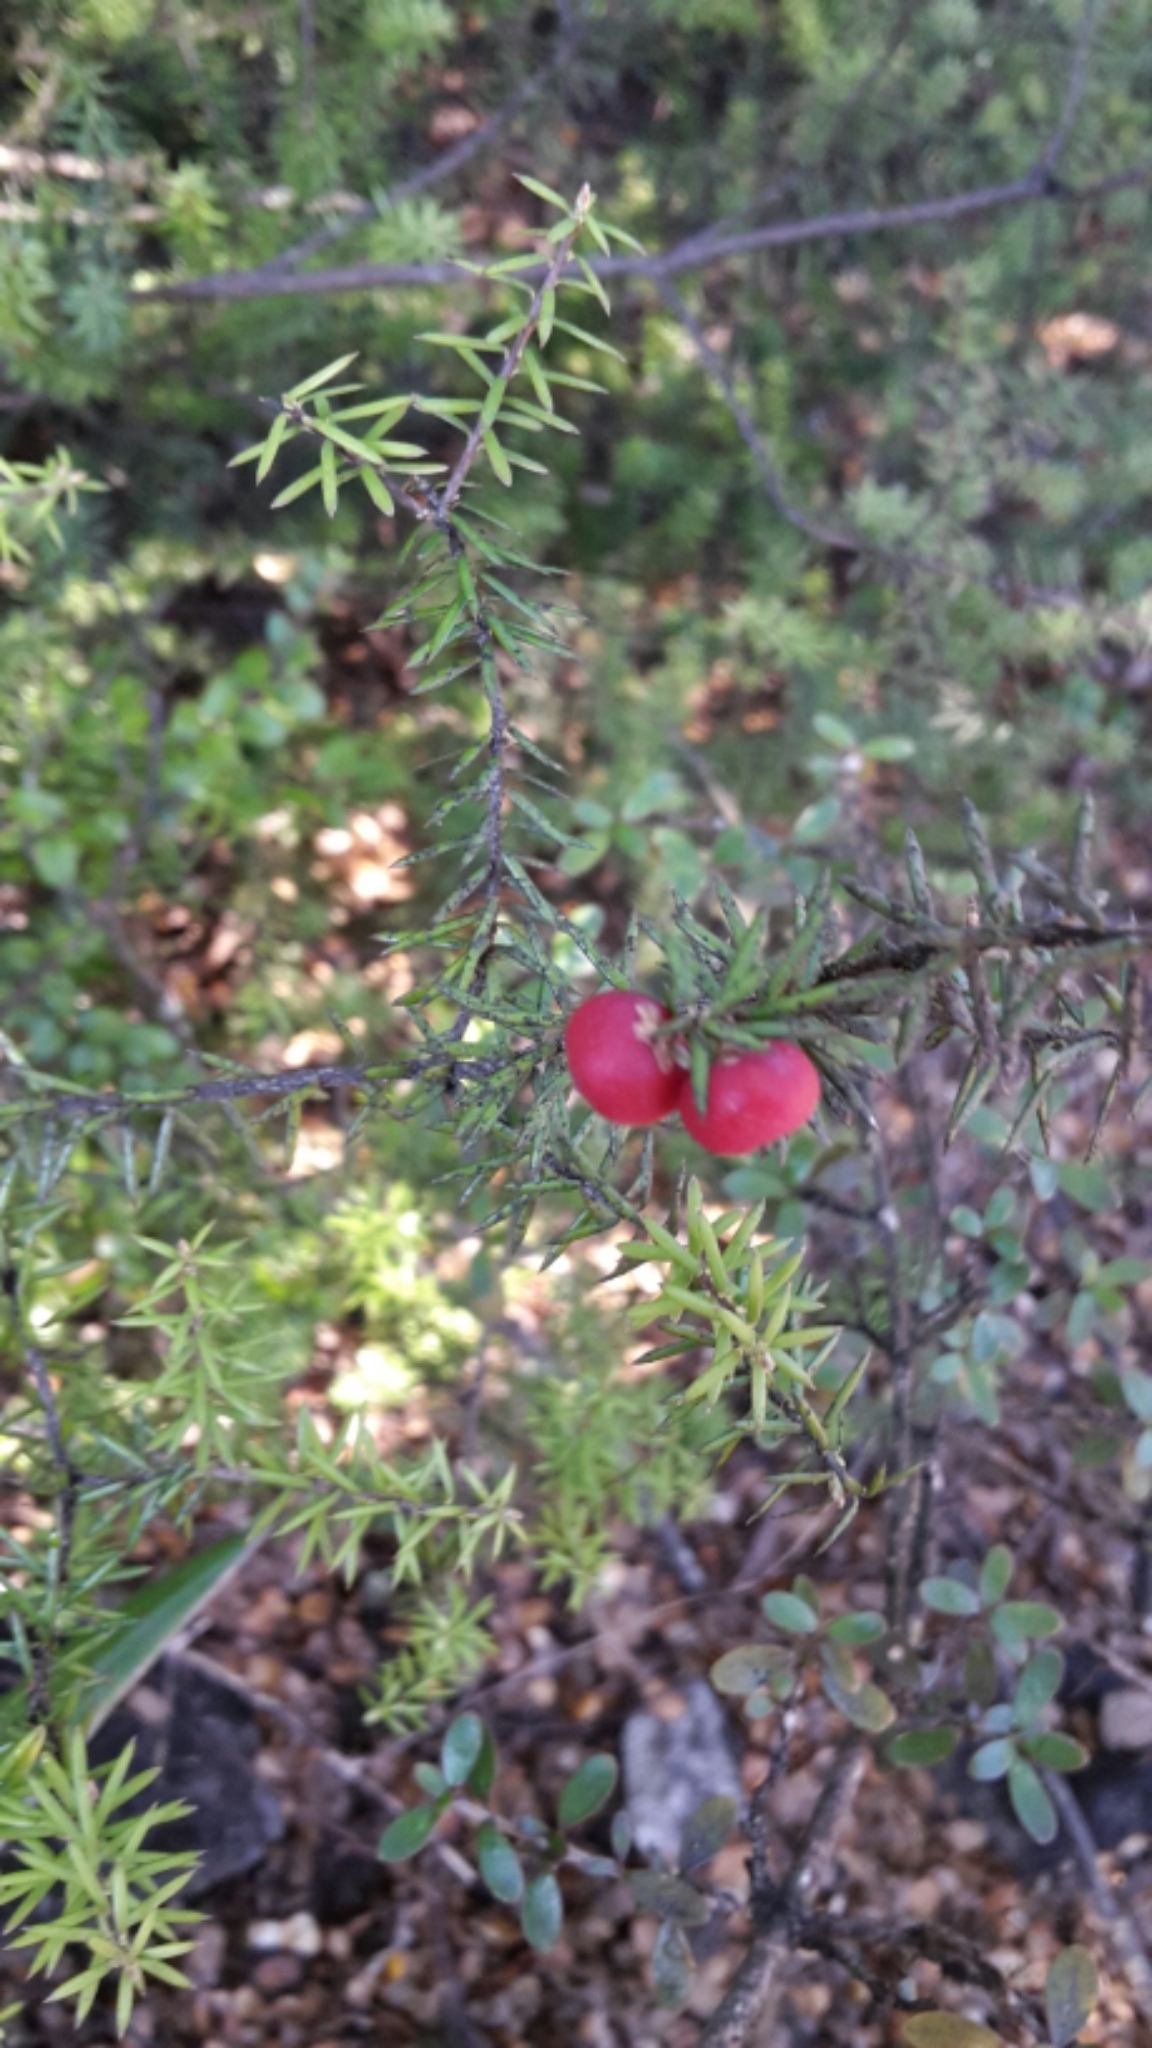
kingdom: Plantae
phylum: Tracheophyta
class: Magnoliopsida
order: Ericales
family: Ericaceae
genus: Leptecophylla
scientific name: Leptecophylla juniperina
